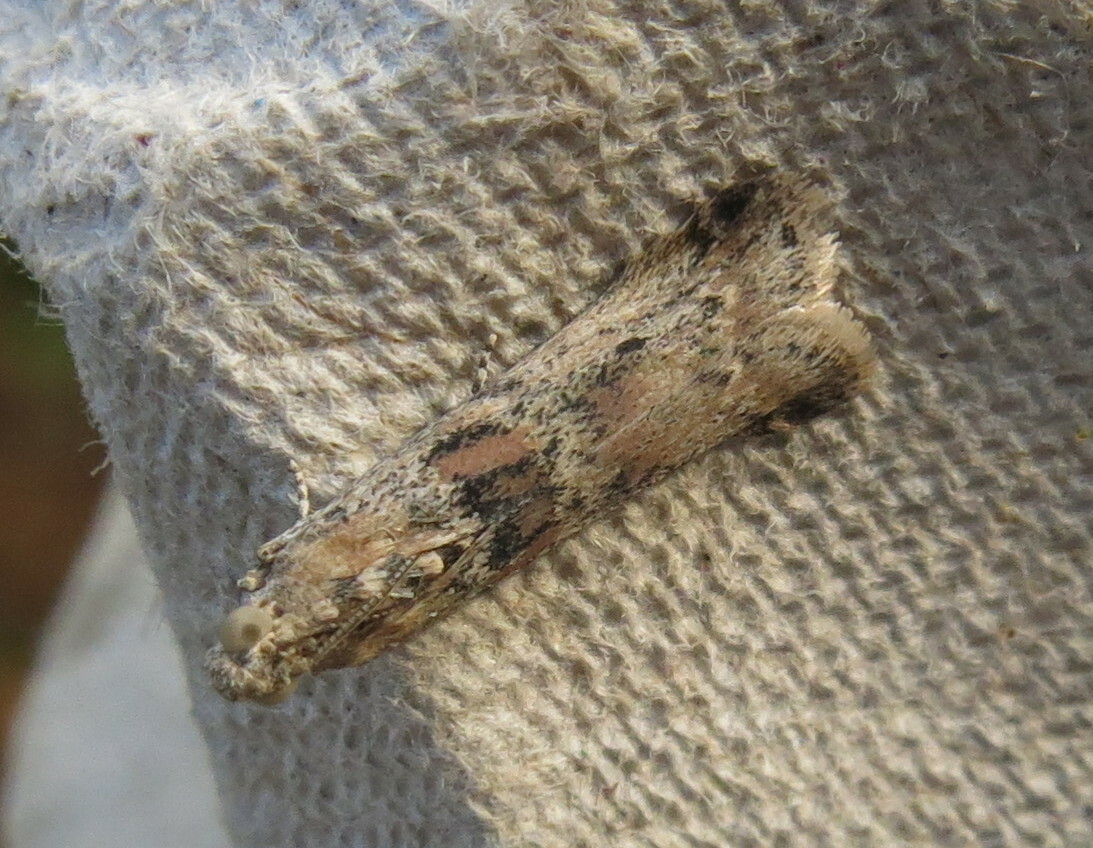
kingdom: Animalia
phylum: Arthropoda
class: Insecta
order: Lepidoptera
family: Pyralidae
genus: Ancylosis
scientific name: Ancylosis oblitella
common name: Saltmarsh knot-horn
